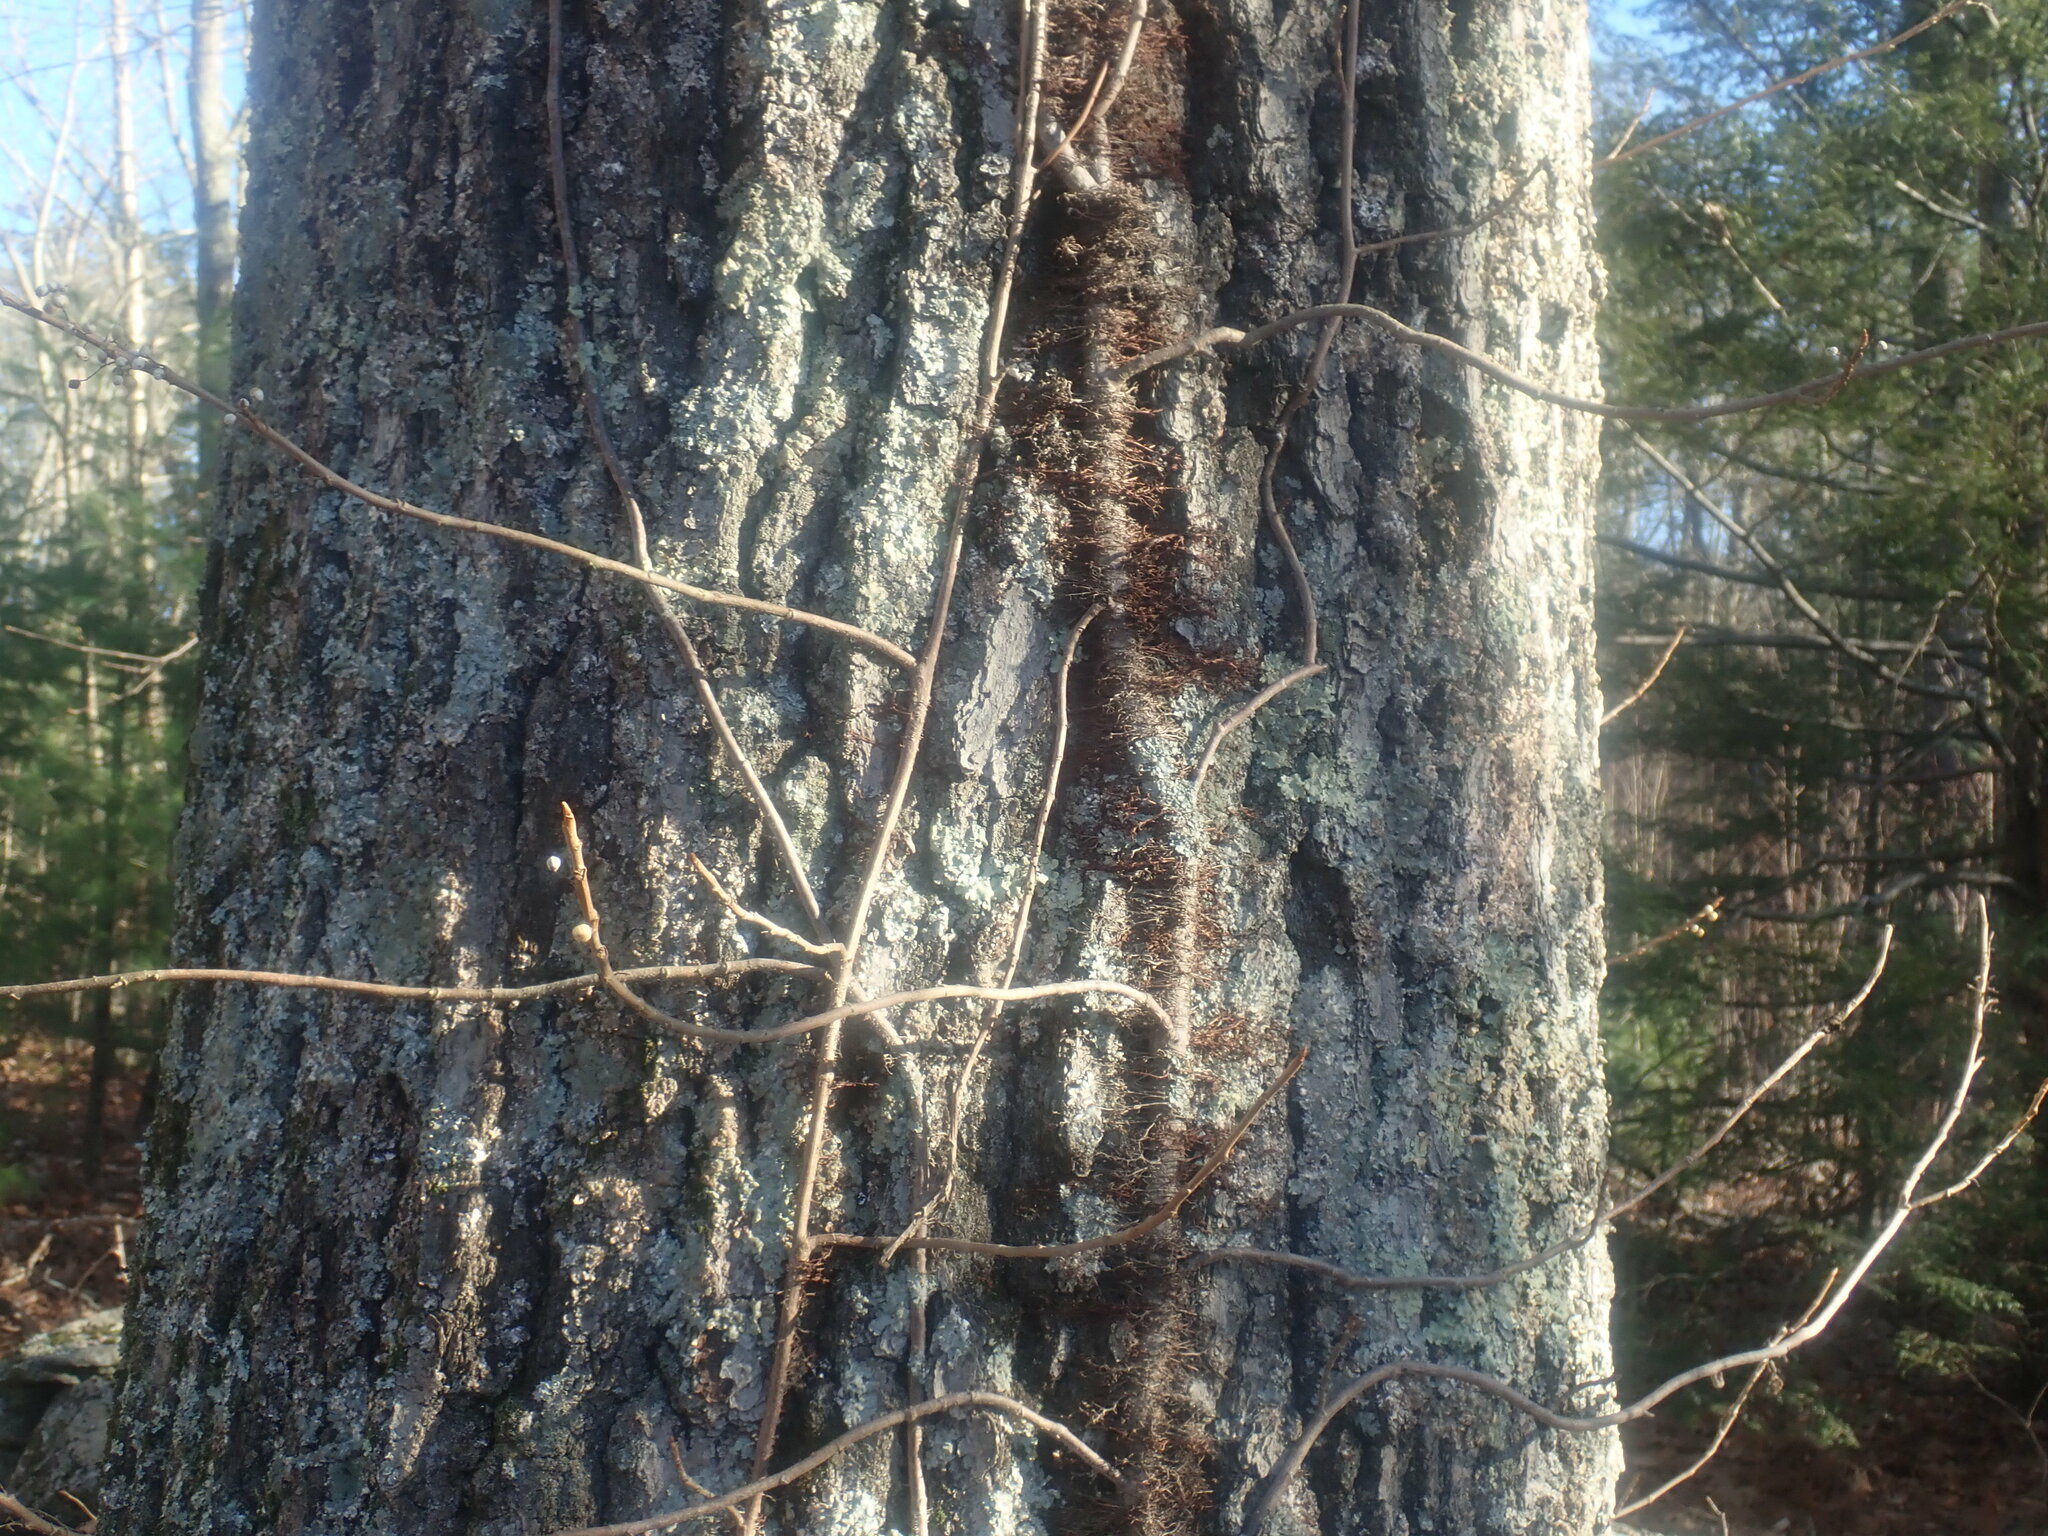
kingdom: Plantae
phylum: Tracheophyta
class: Magnoliopsida
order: Sapindales
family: Anacardiaceae
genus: Toxicodendron
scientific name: Toxicodendron radicans
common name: Poison ivy
